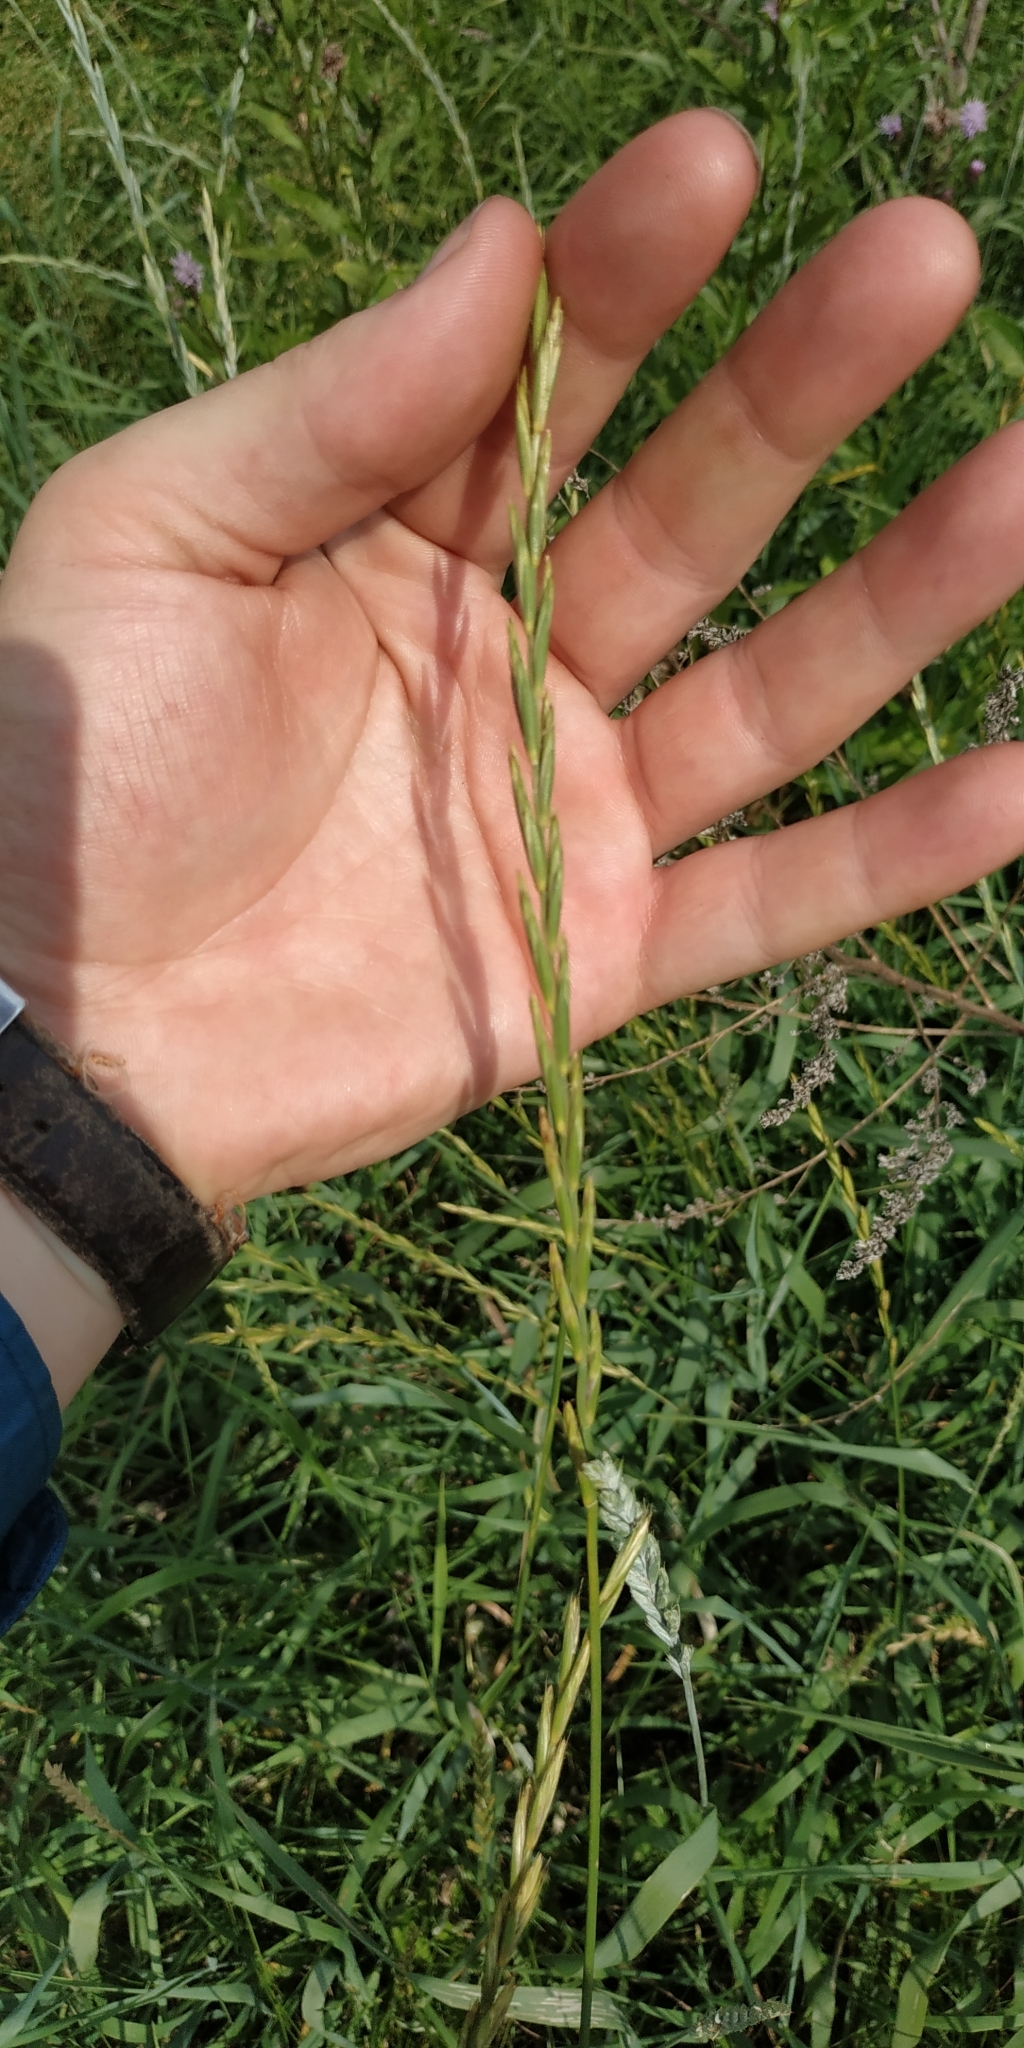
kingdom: Plantae
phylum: Tracheophyta
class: Liliopsida
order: Poales
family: Poaceae
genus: Elymus
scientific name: Elymus repens
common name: Quackgrass
